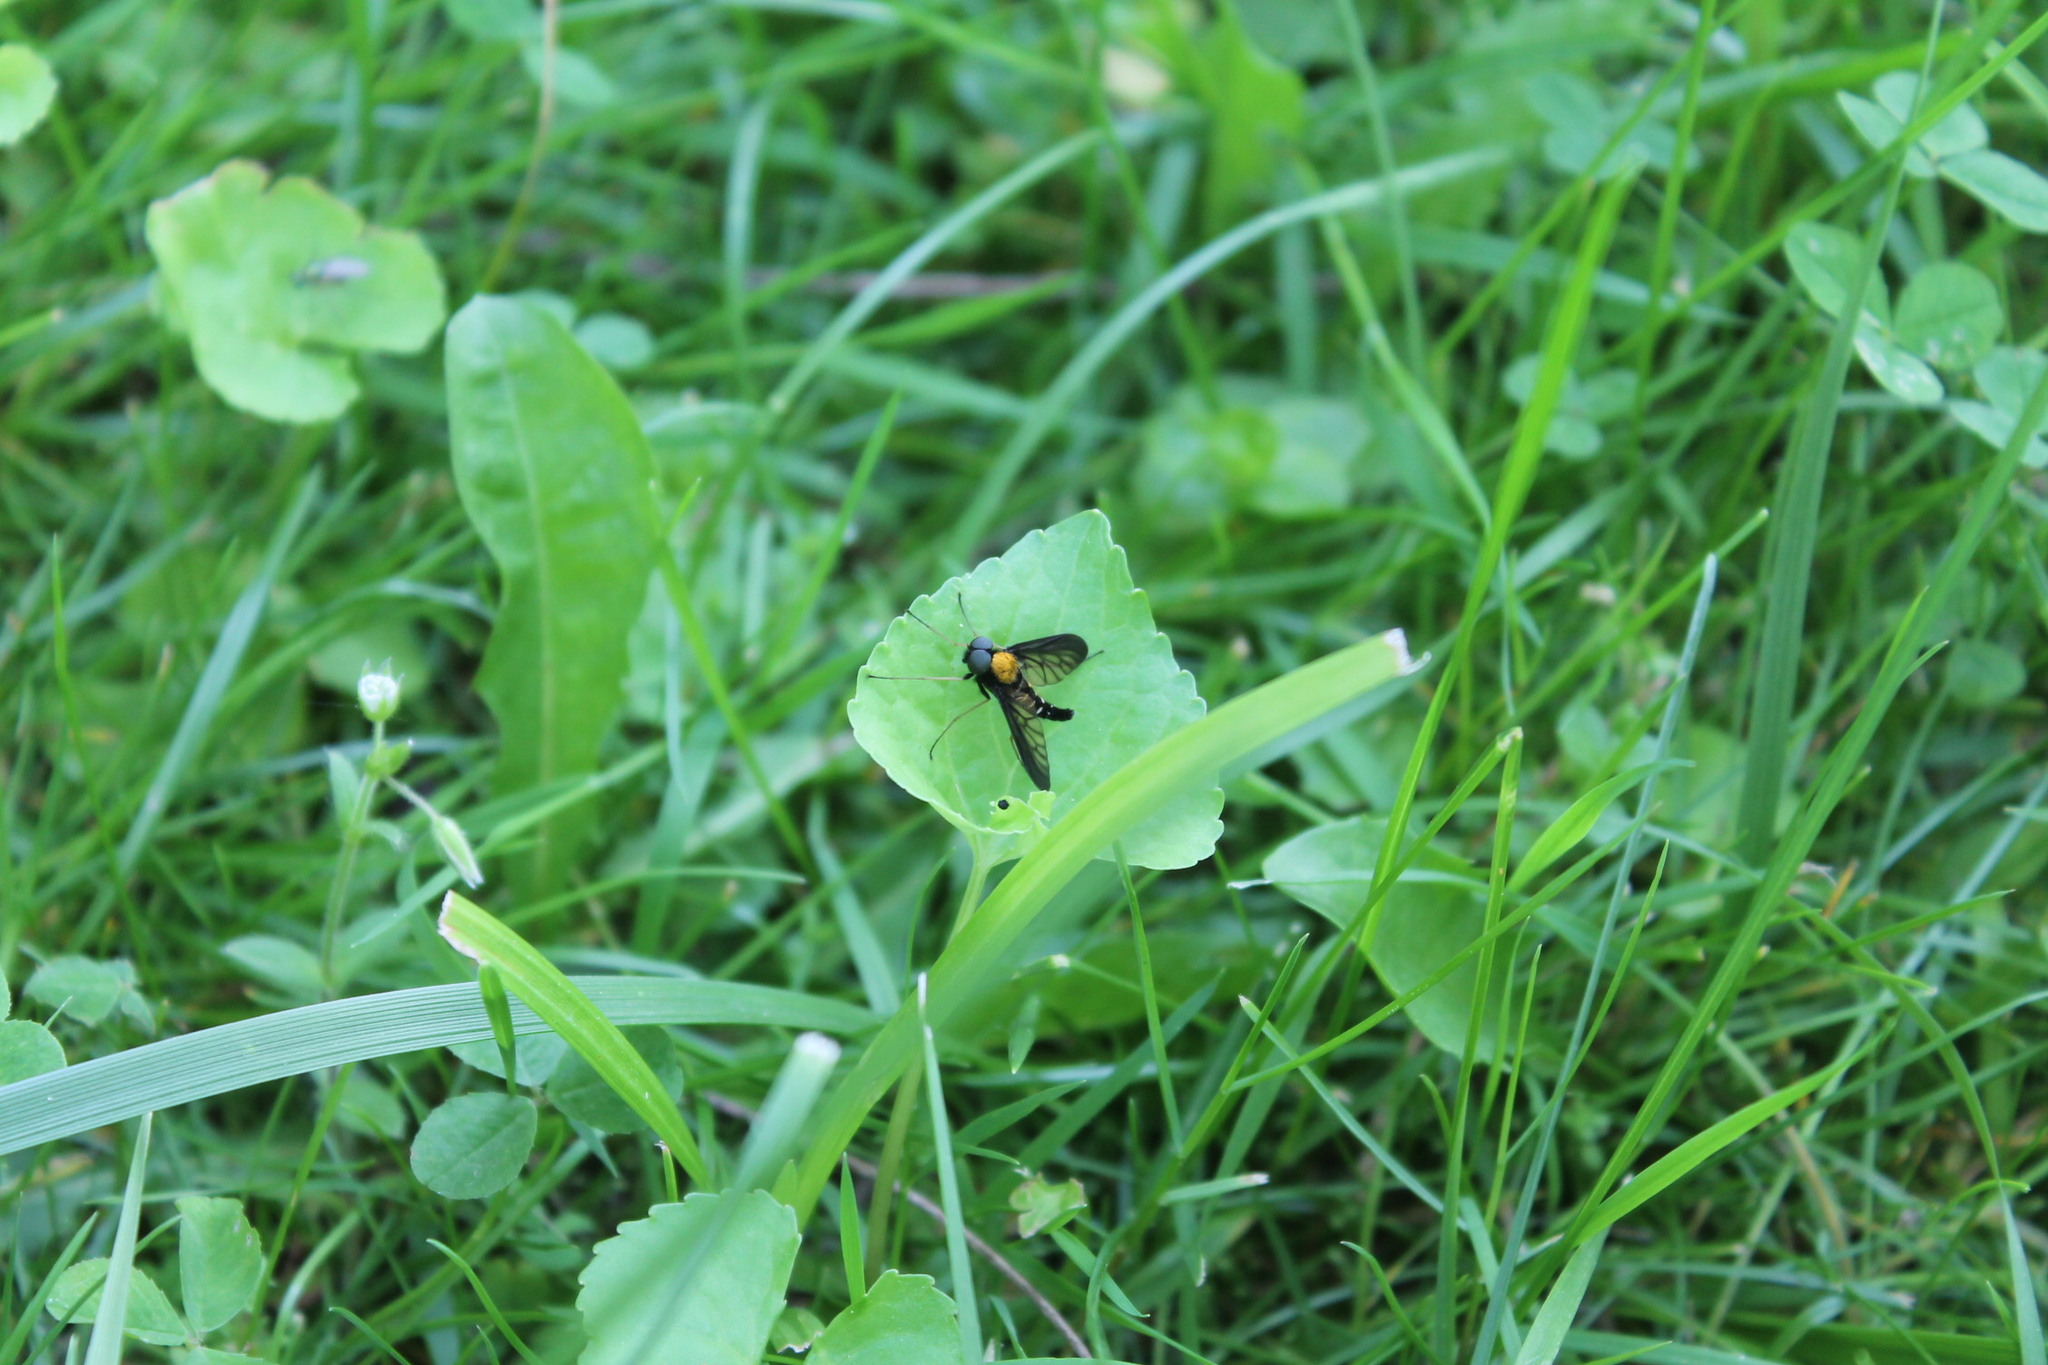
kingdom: Animalia
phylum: Arthropoda
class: Insecta
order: Diptera
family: Rhagionidae
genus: Chrysopilus
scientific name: Chrysopilus thoracicus
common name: Golden-backed snipe fly
